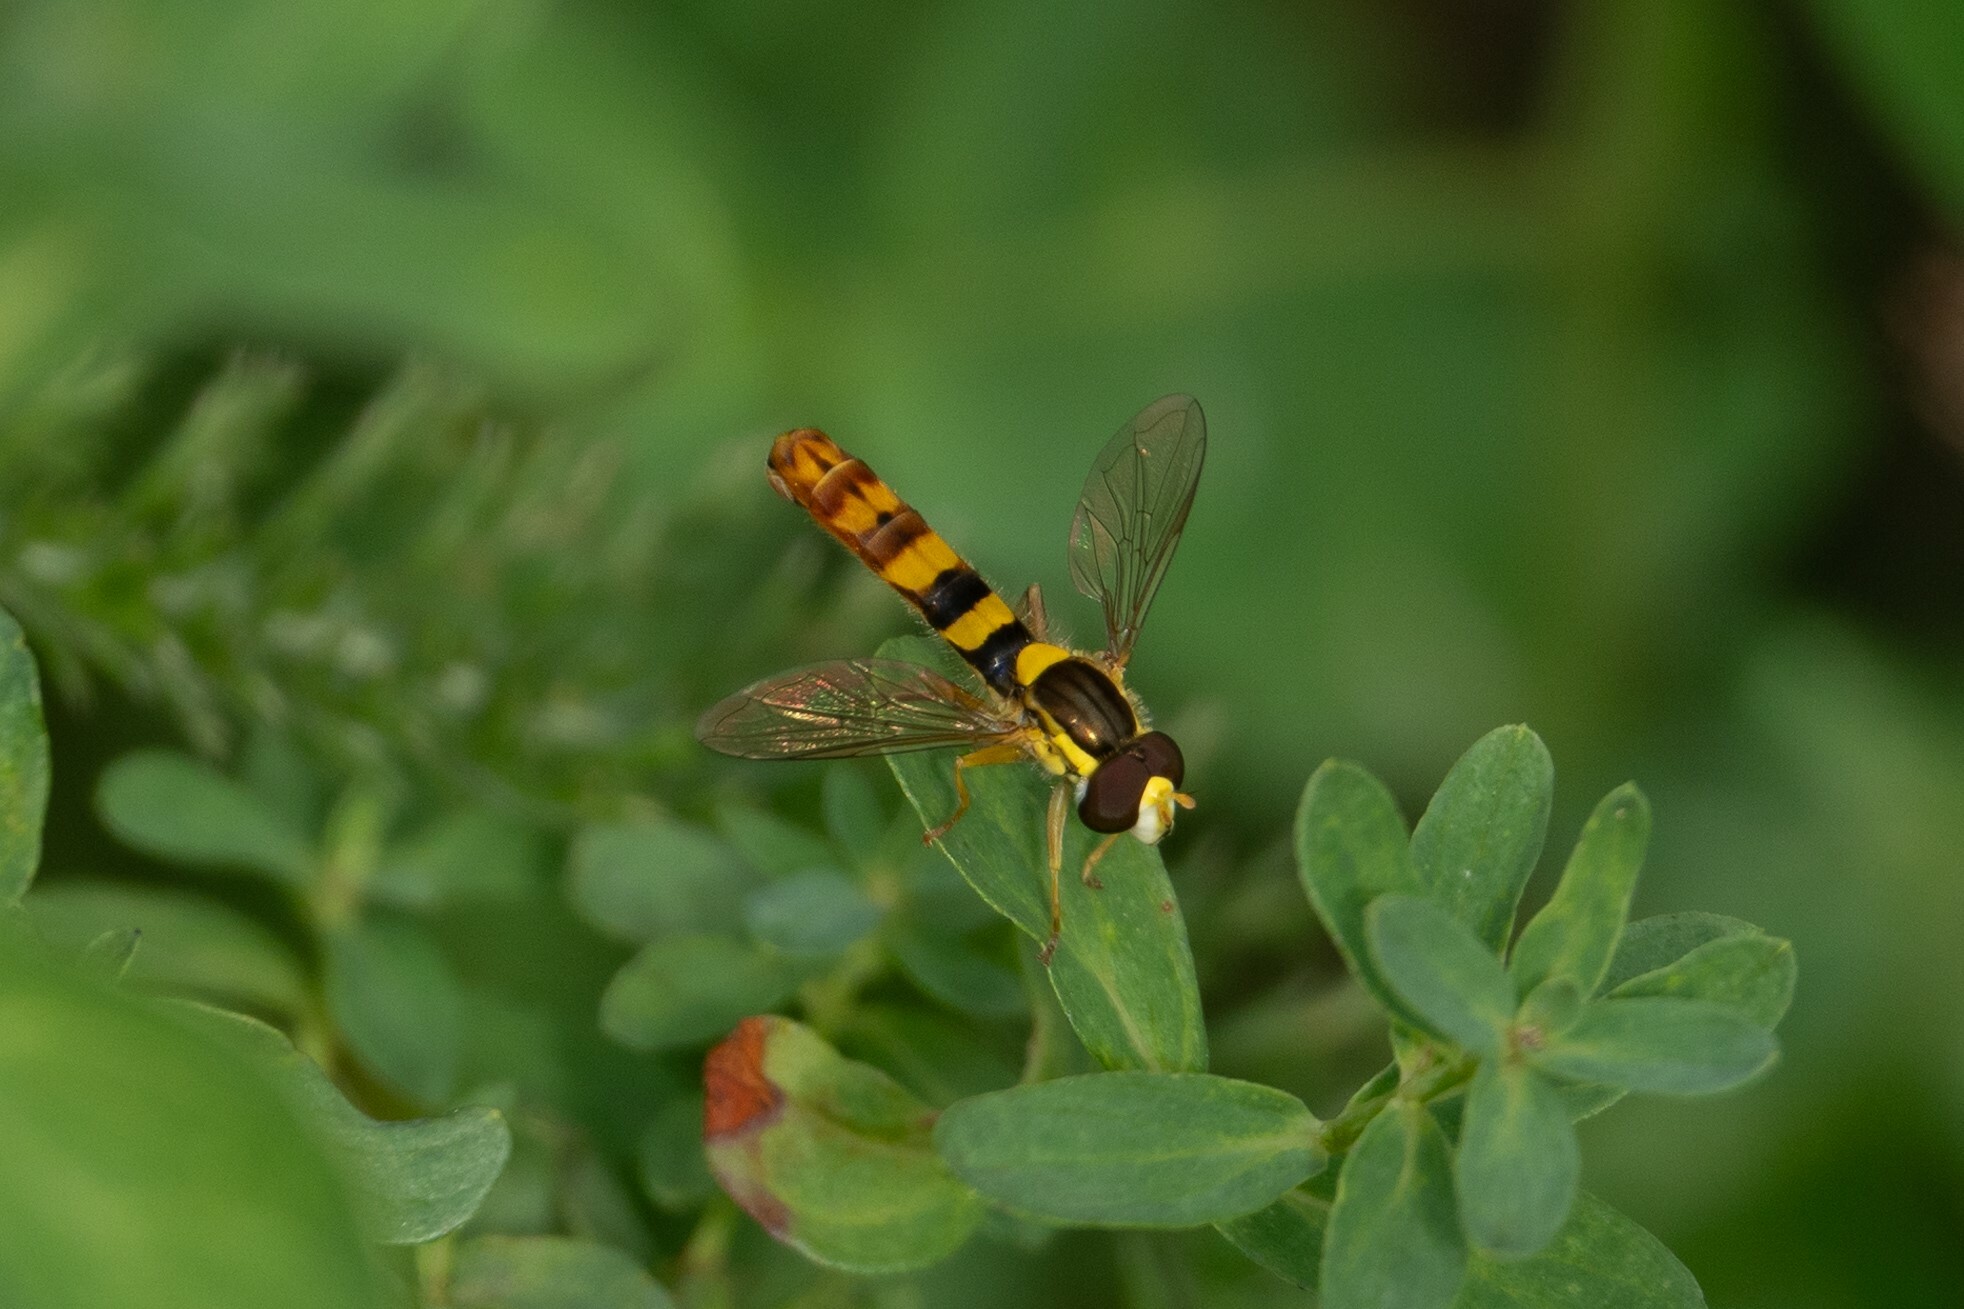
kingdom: Animalia
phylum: Arthropoda
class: Insecta
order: Diptera
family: Syrphidae
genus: Sphaerophoria
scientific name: Sphaerophoria scripta
